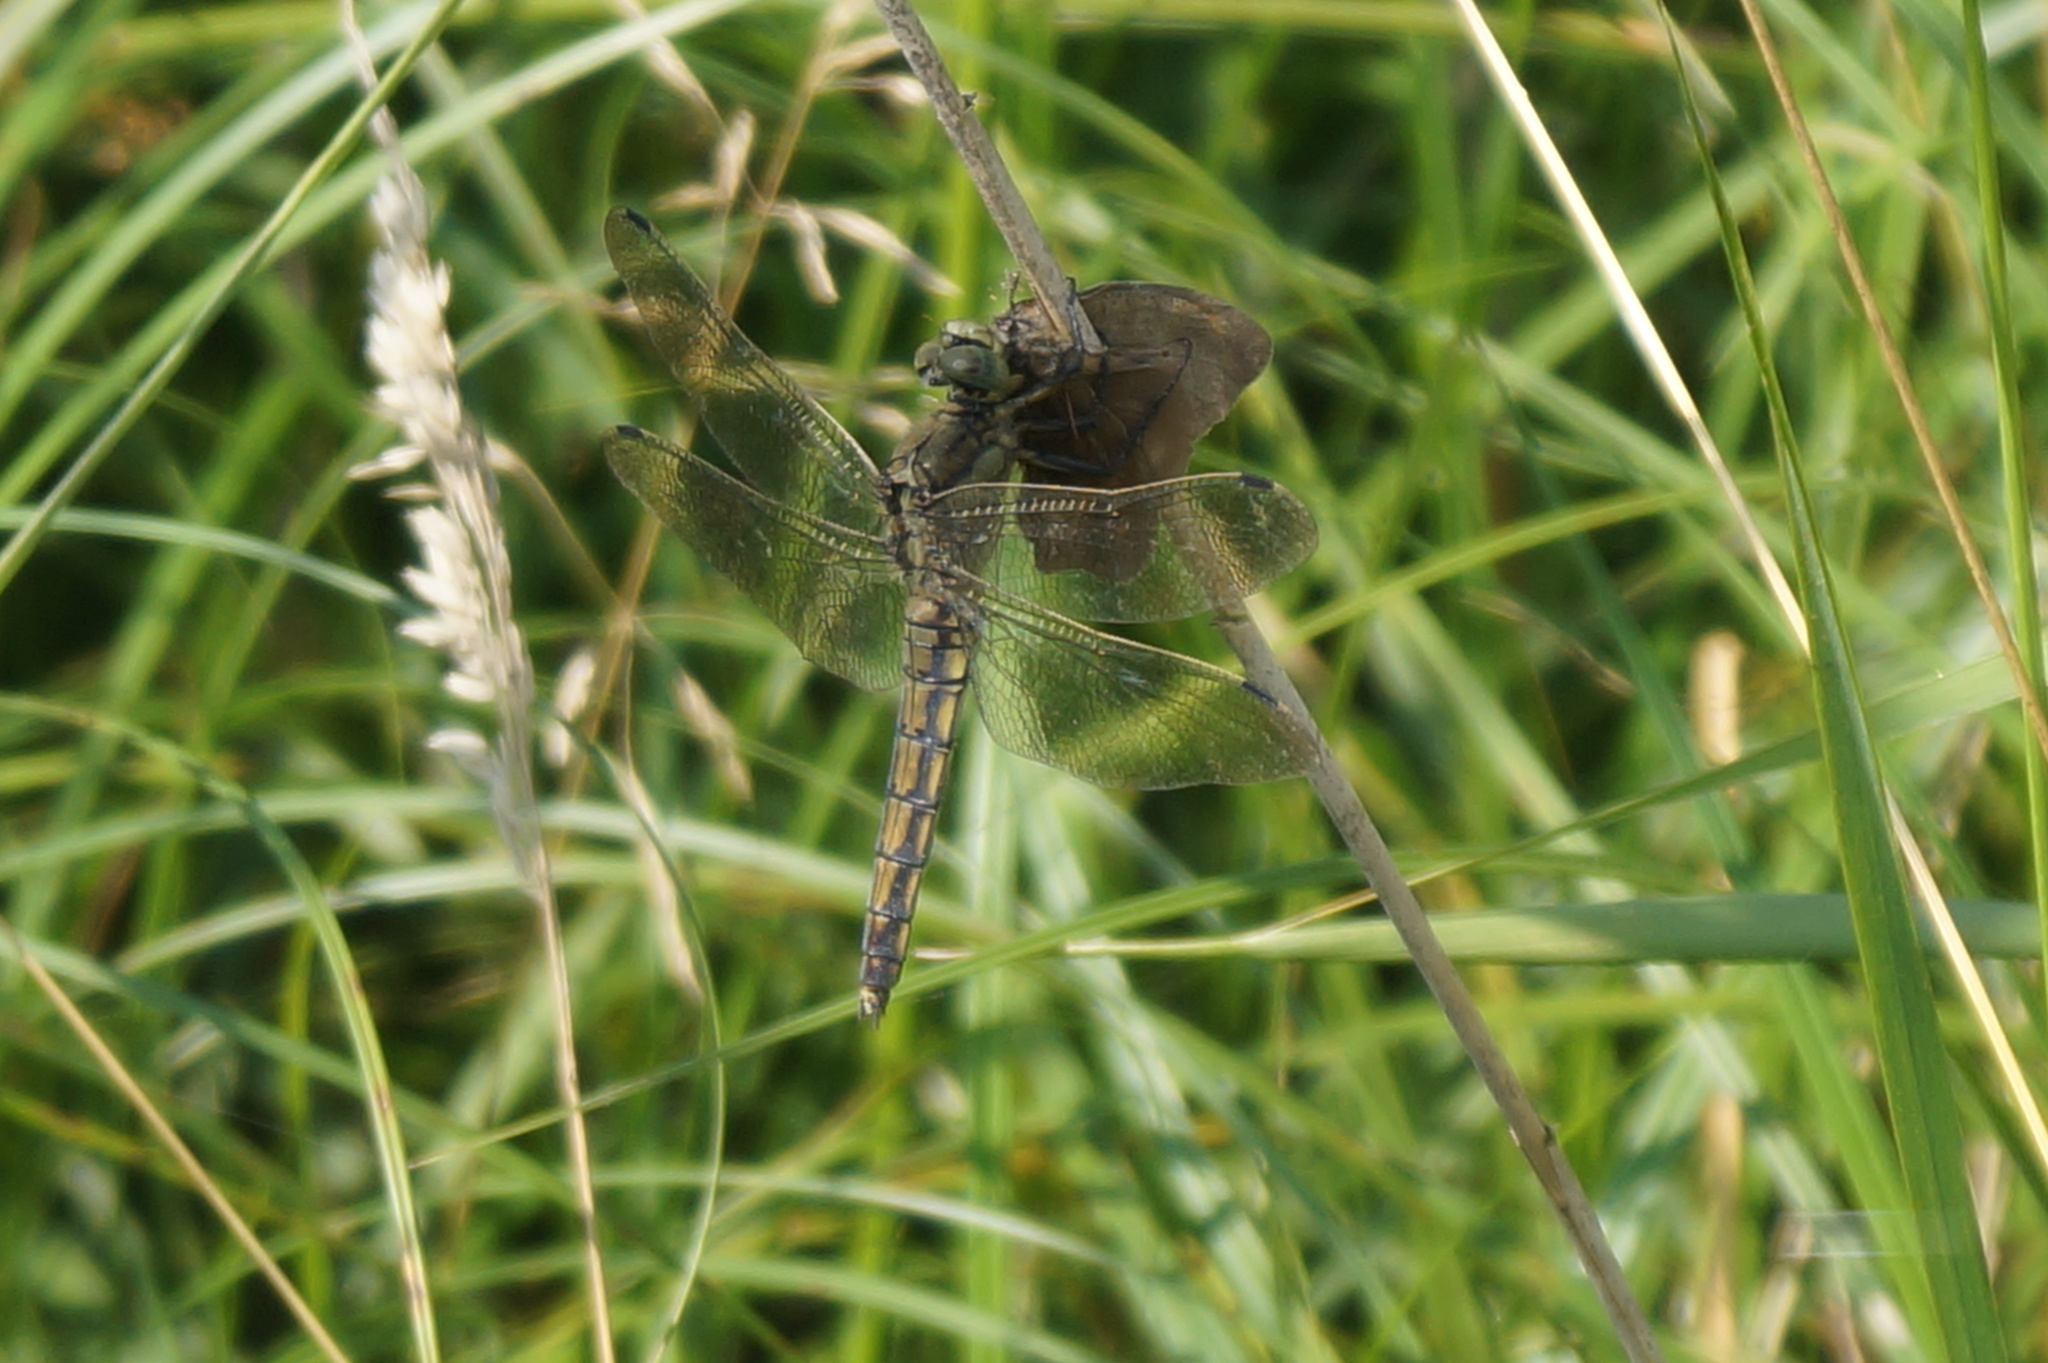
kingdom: Animalia
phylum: Arthropoda
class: Insecta
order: Odonata
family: Libellulidae
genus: Orthetrum
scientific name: Orthetrum cancellatum
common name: Black-tailed skimmer
